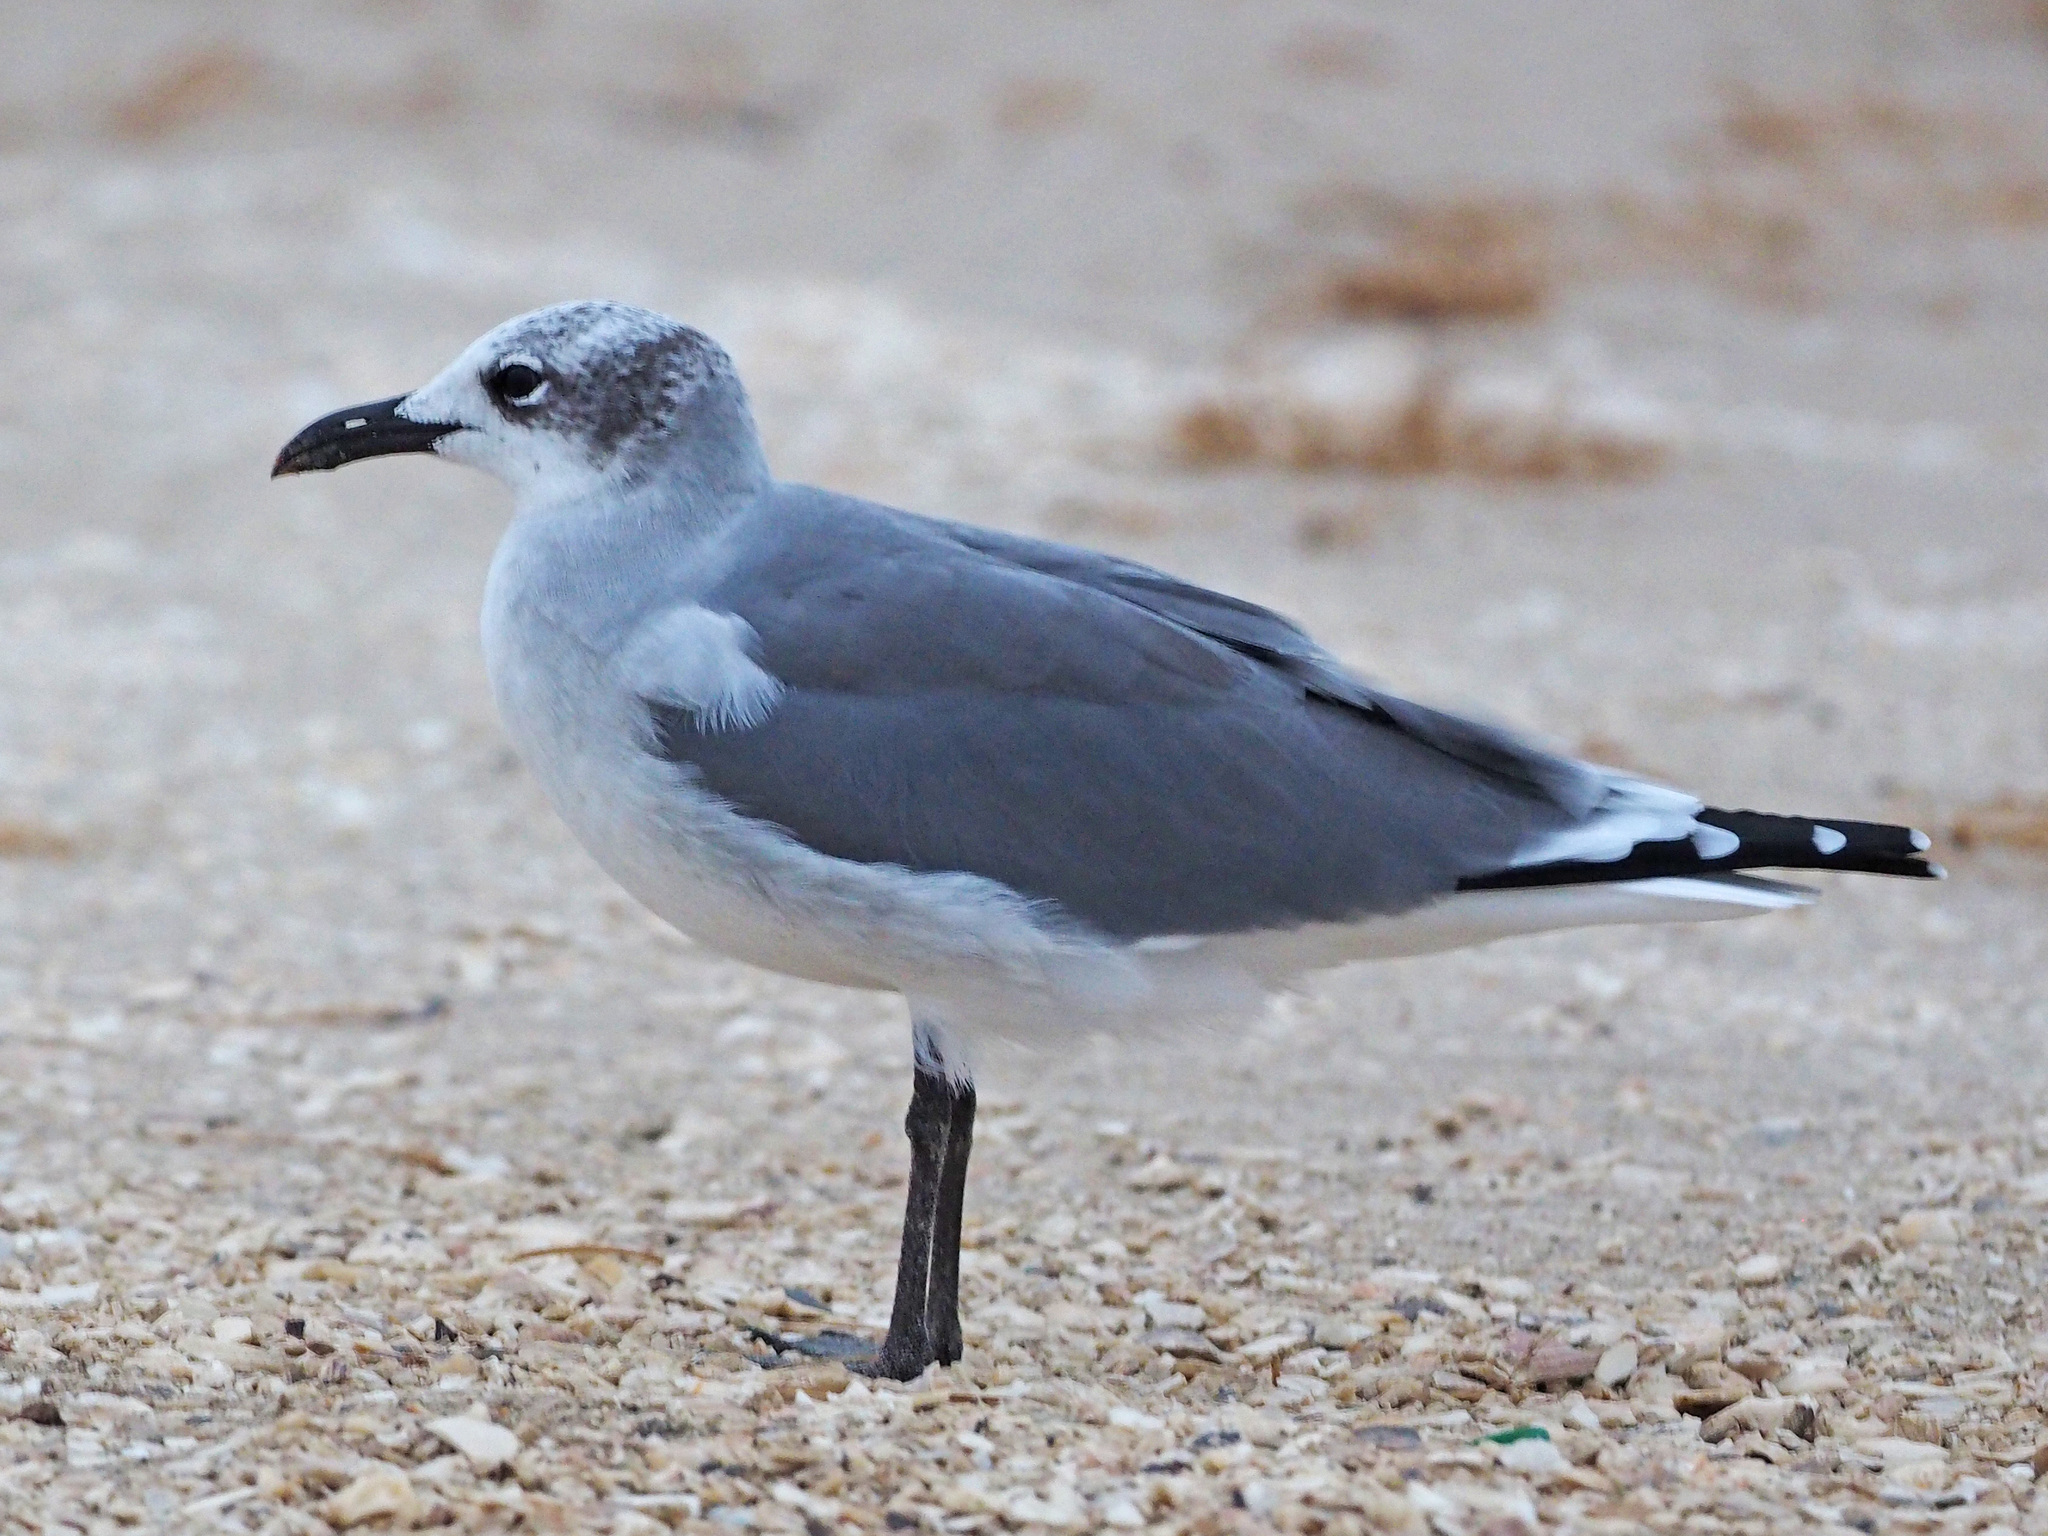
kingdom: Animalia
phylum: Chordata
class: Aves
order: Charadriiformes
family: Laridae
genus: Leucophaeus
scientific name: Leucophaeus atricilla
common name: Laughing gull
